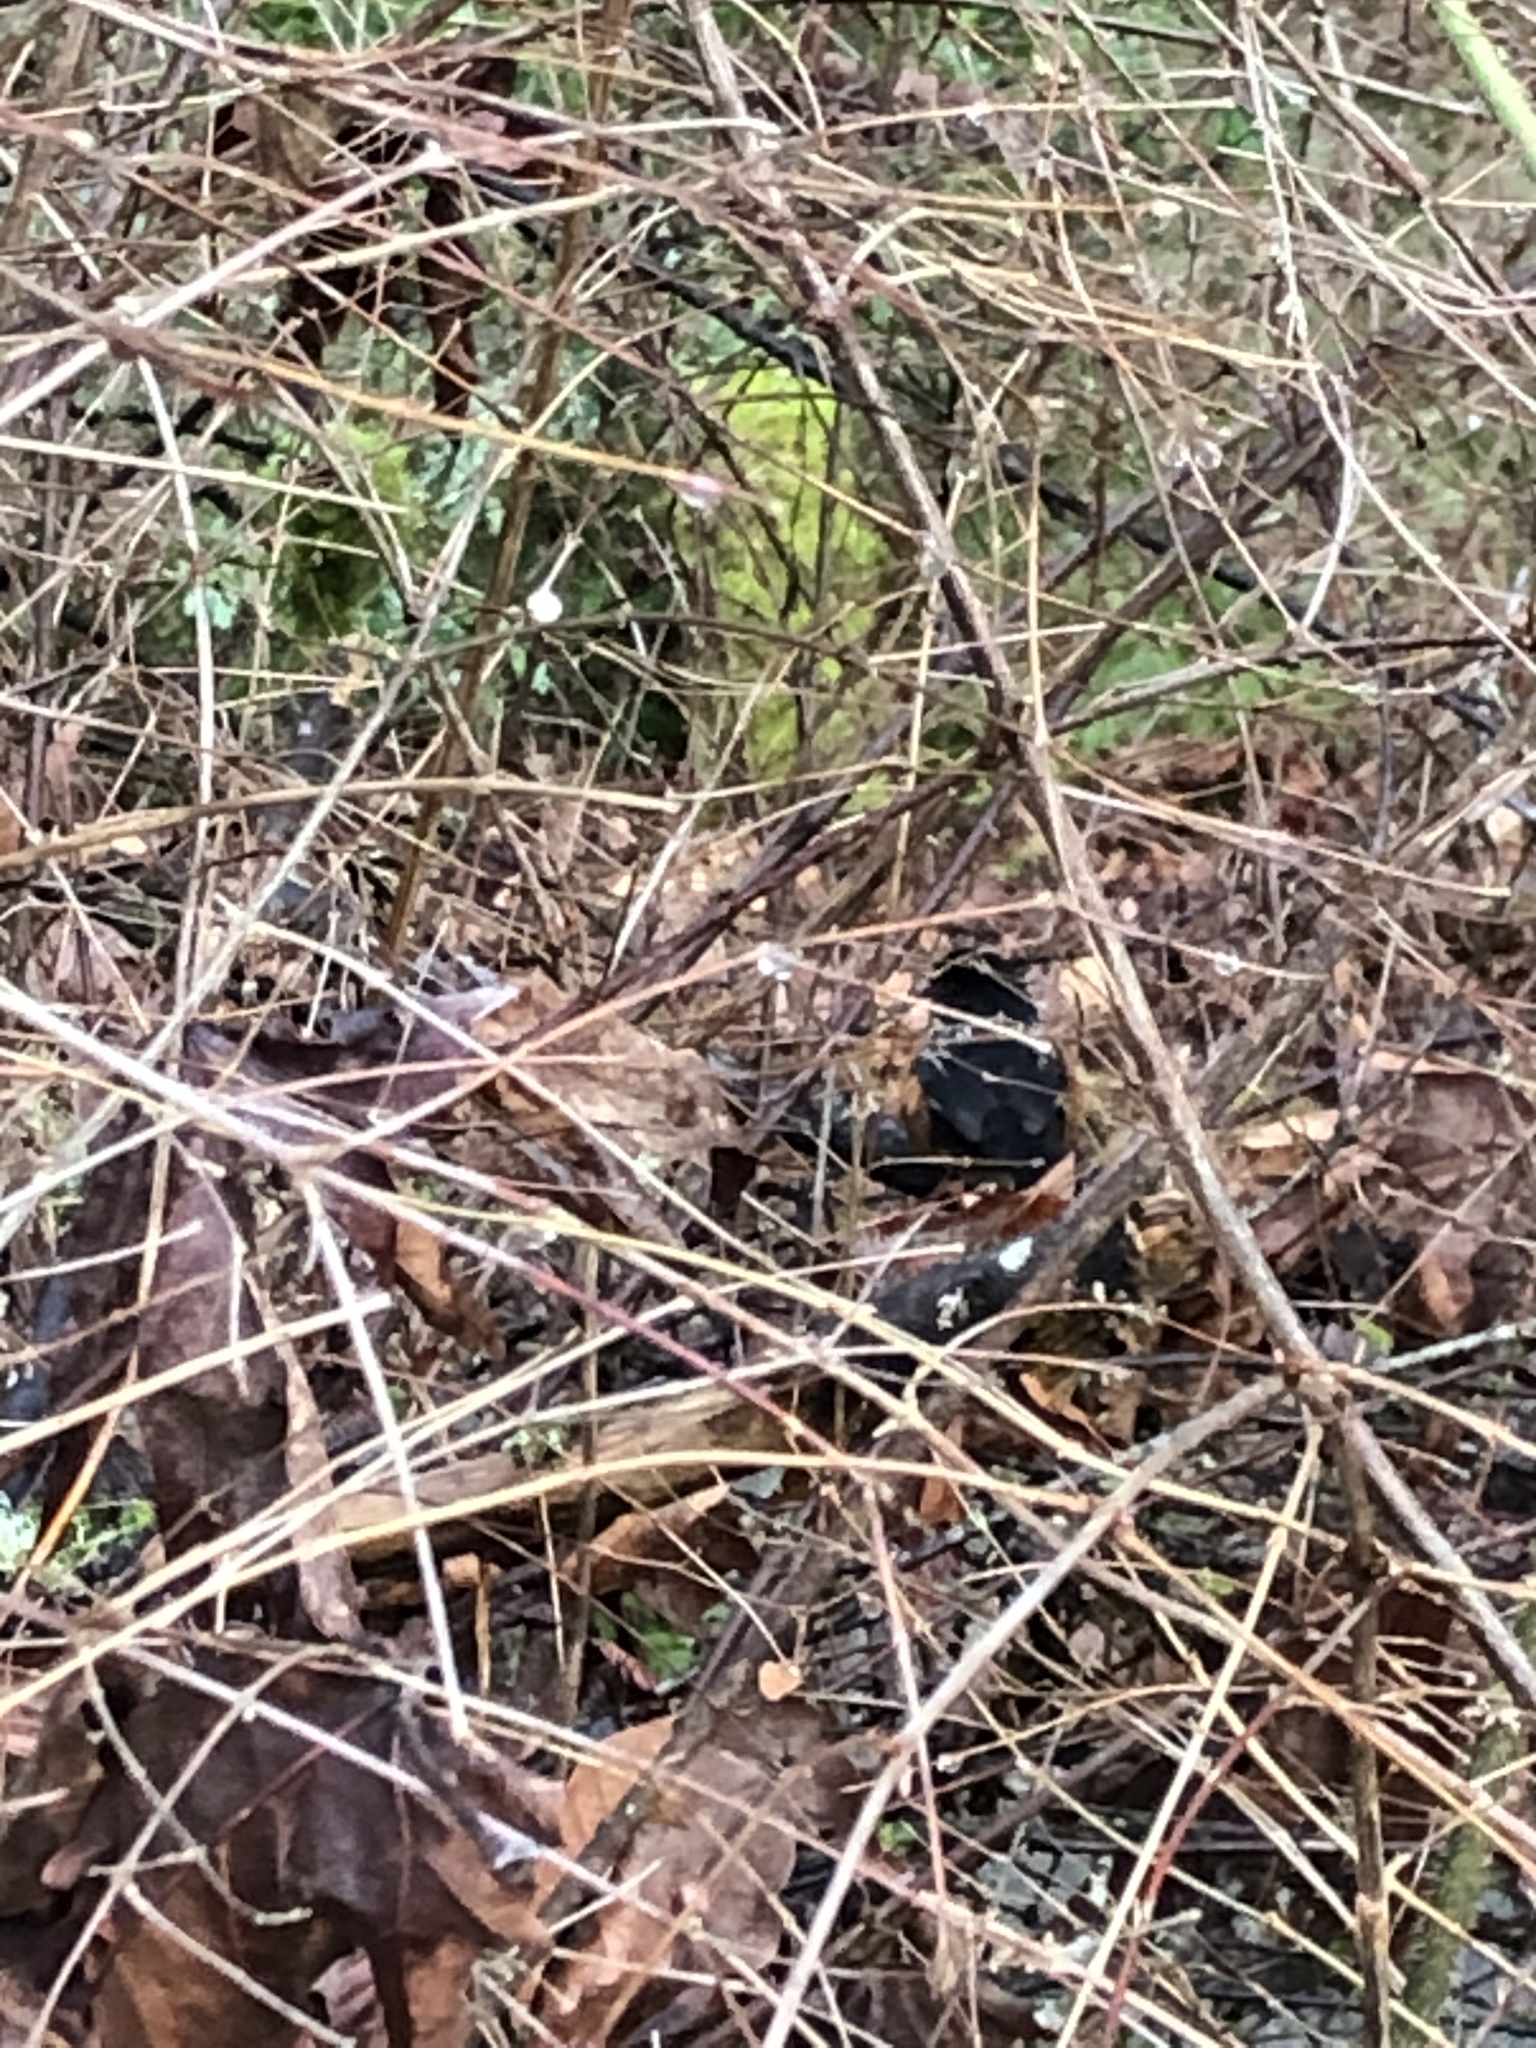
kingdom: Animalia
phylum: Chordata
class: Aves
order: Passeriformes
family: Passerellidae
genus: Pipilo
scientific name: Pipilo maculatus
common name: Spotted towhee
